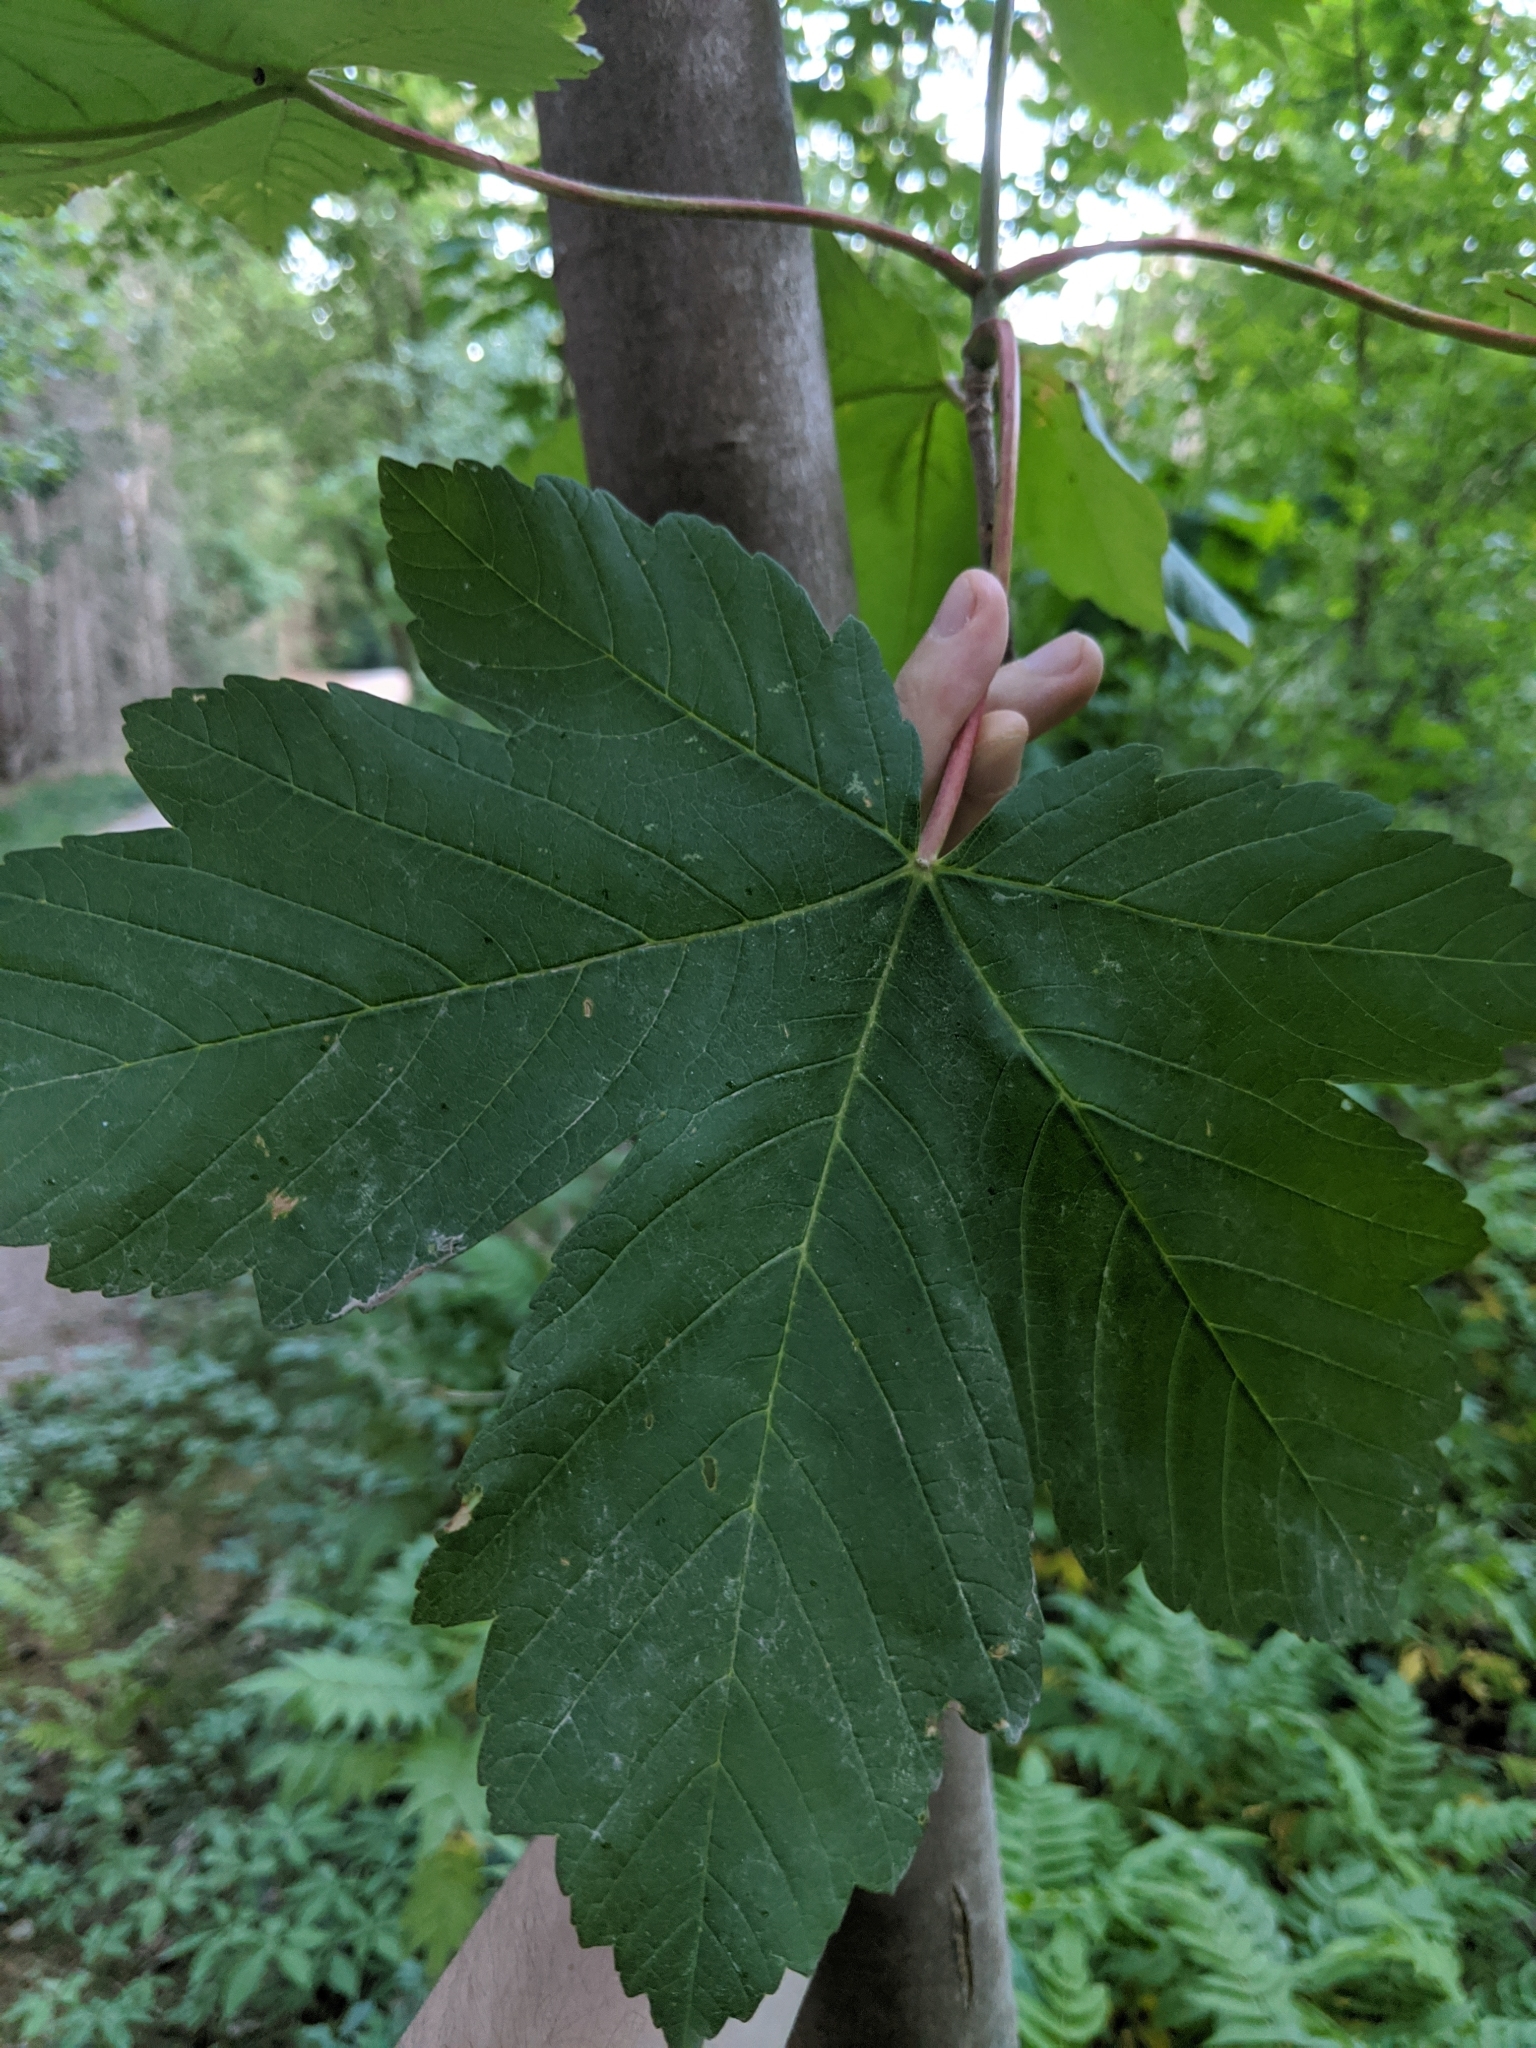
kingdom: Plantae
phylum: Tracheophyta
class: Magnoliopsida
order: Sapindales
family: Sapindaceae
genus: Acer
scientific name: Acer pseudoplatanus
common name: Sycamore
